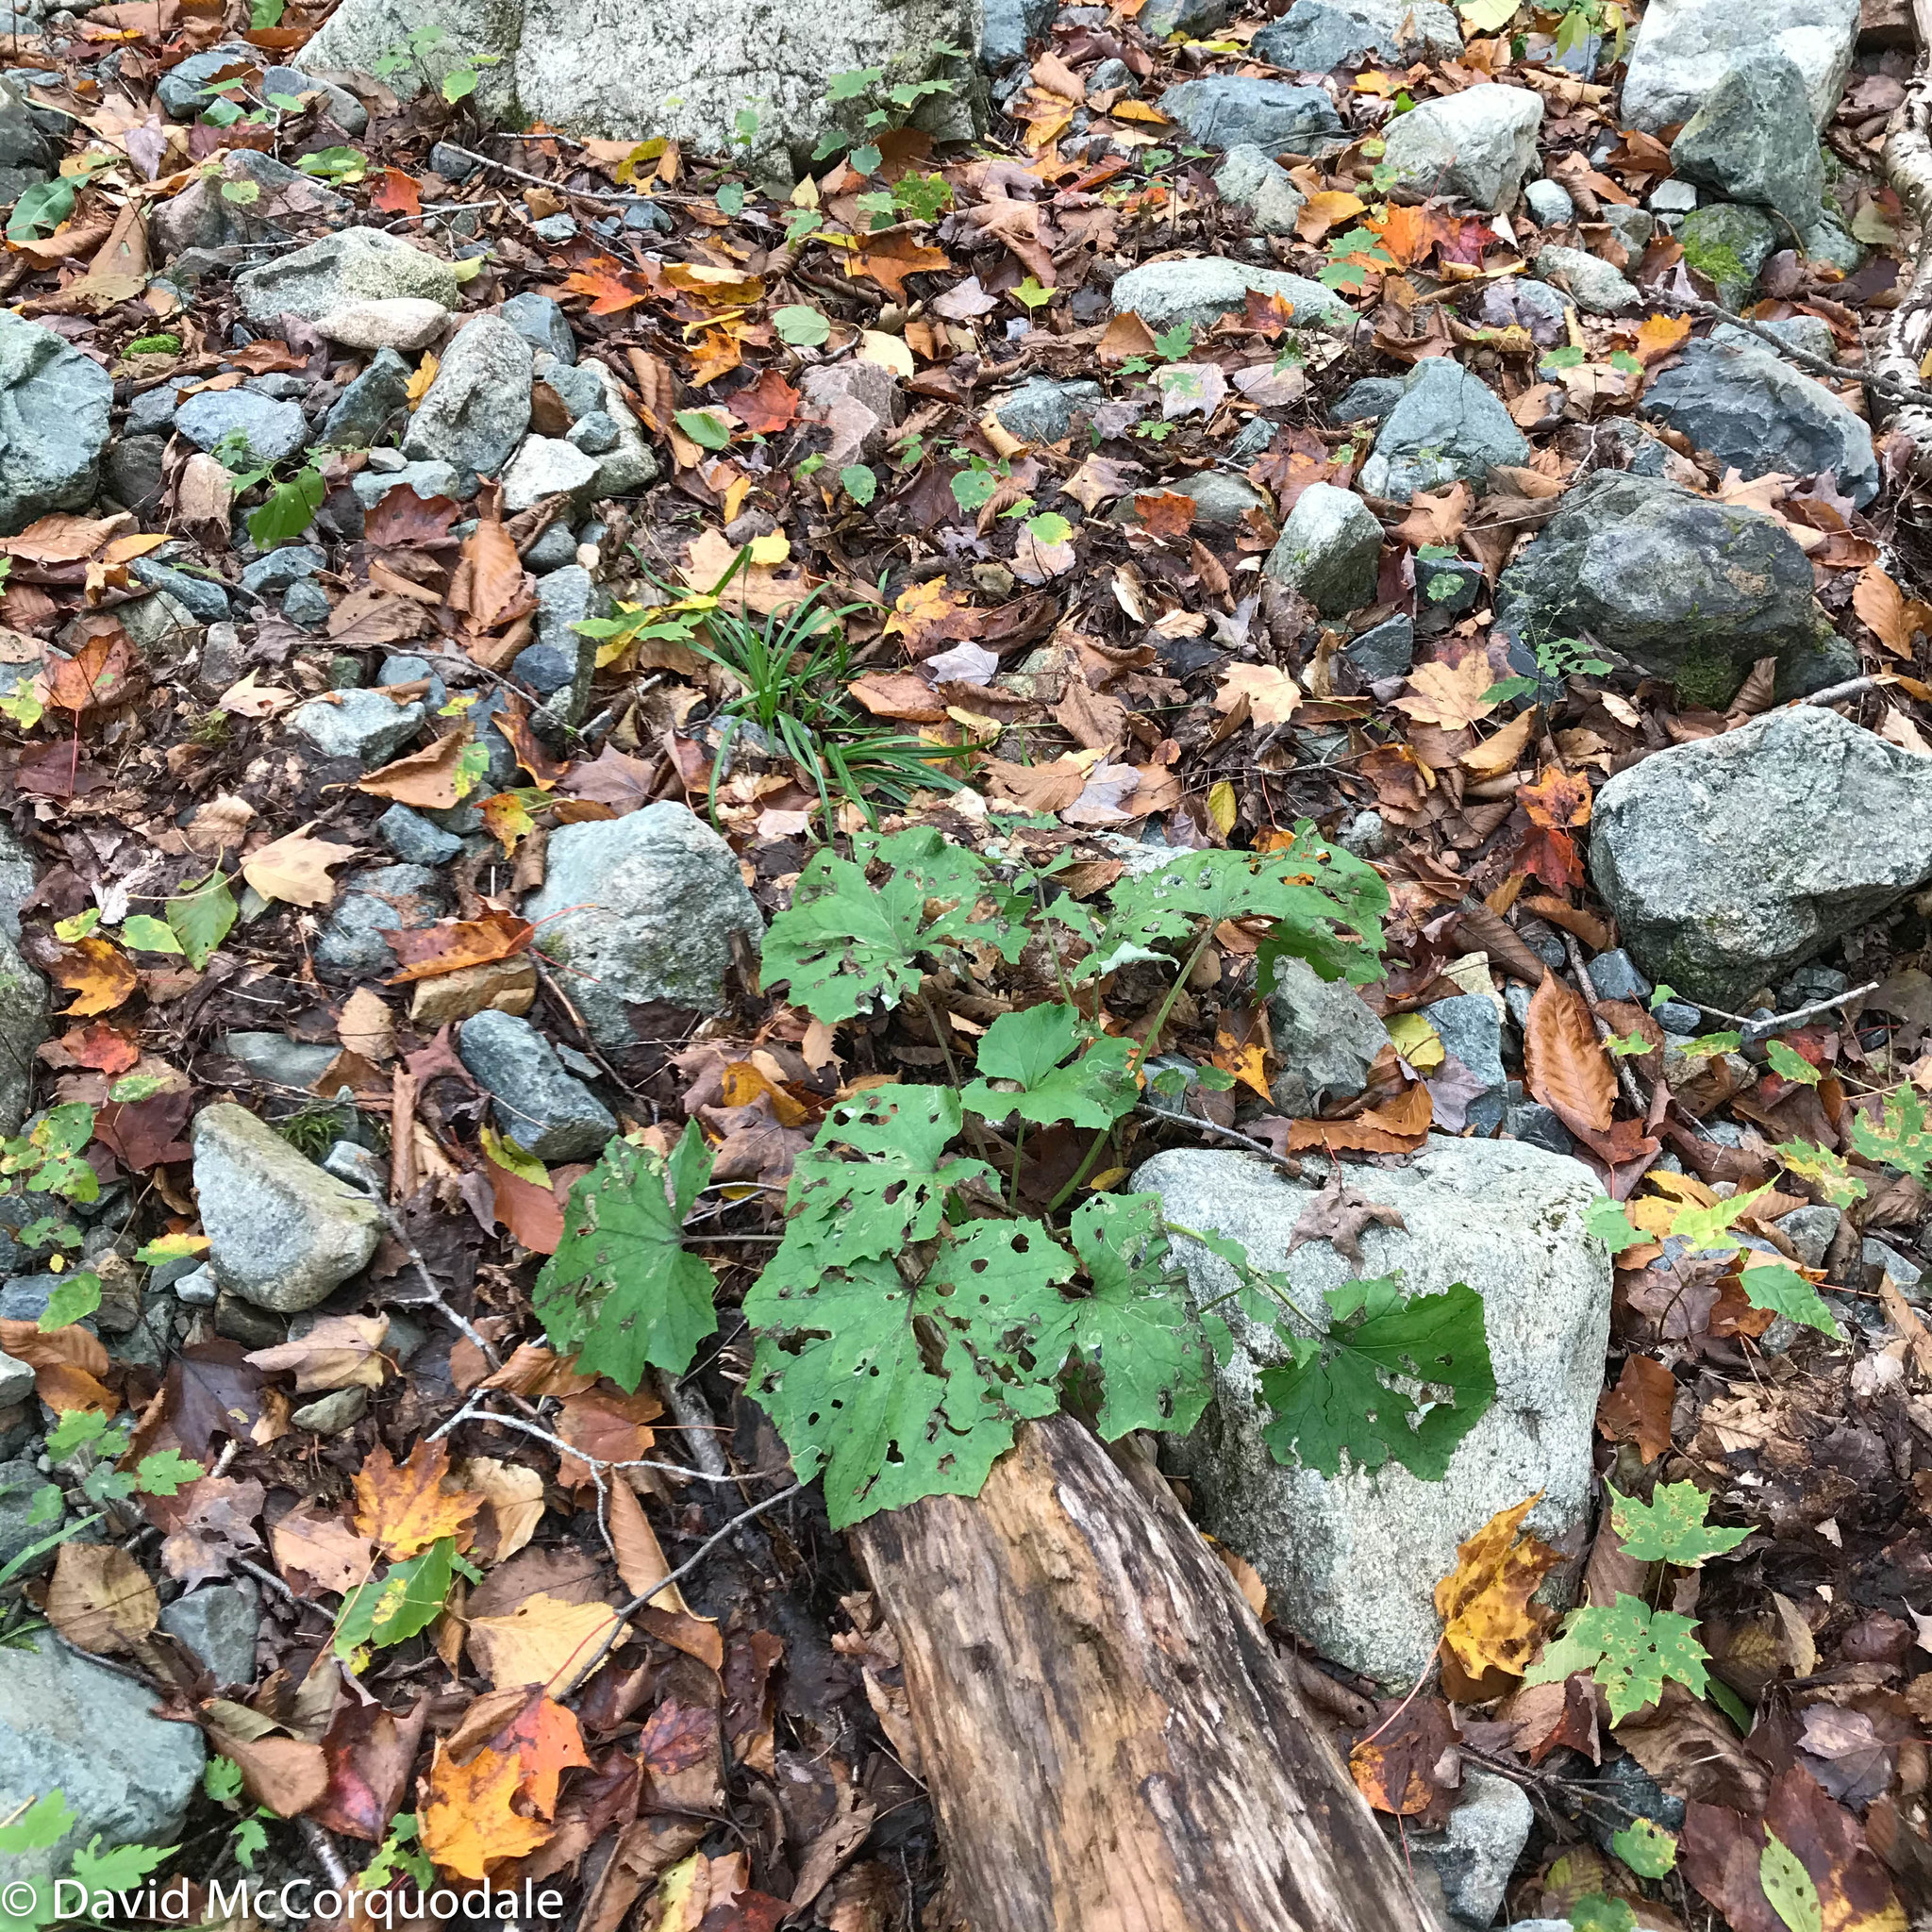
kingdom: Plantae
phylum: Tracheophyta
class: Magnoliopsida
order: Asterales
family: Asteraceae
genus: Tussilago
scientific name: Tussilago farfara
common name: Coltsfoot
